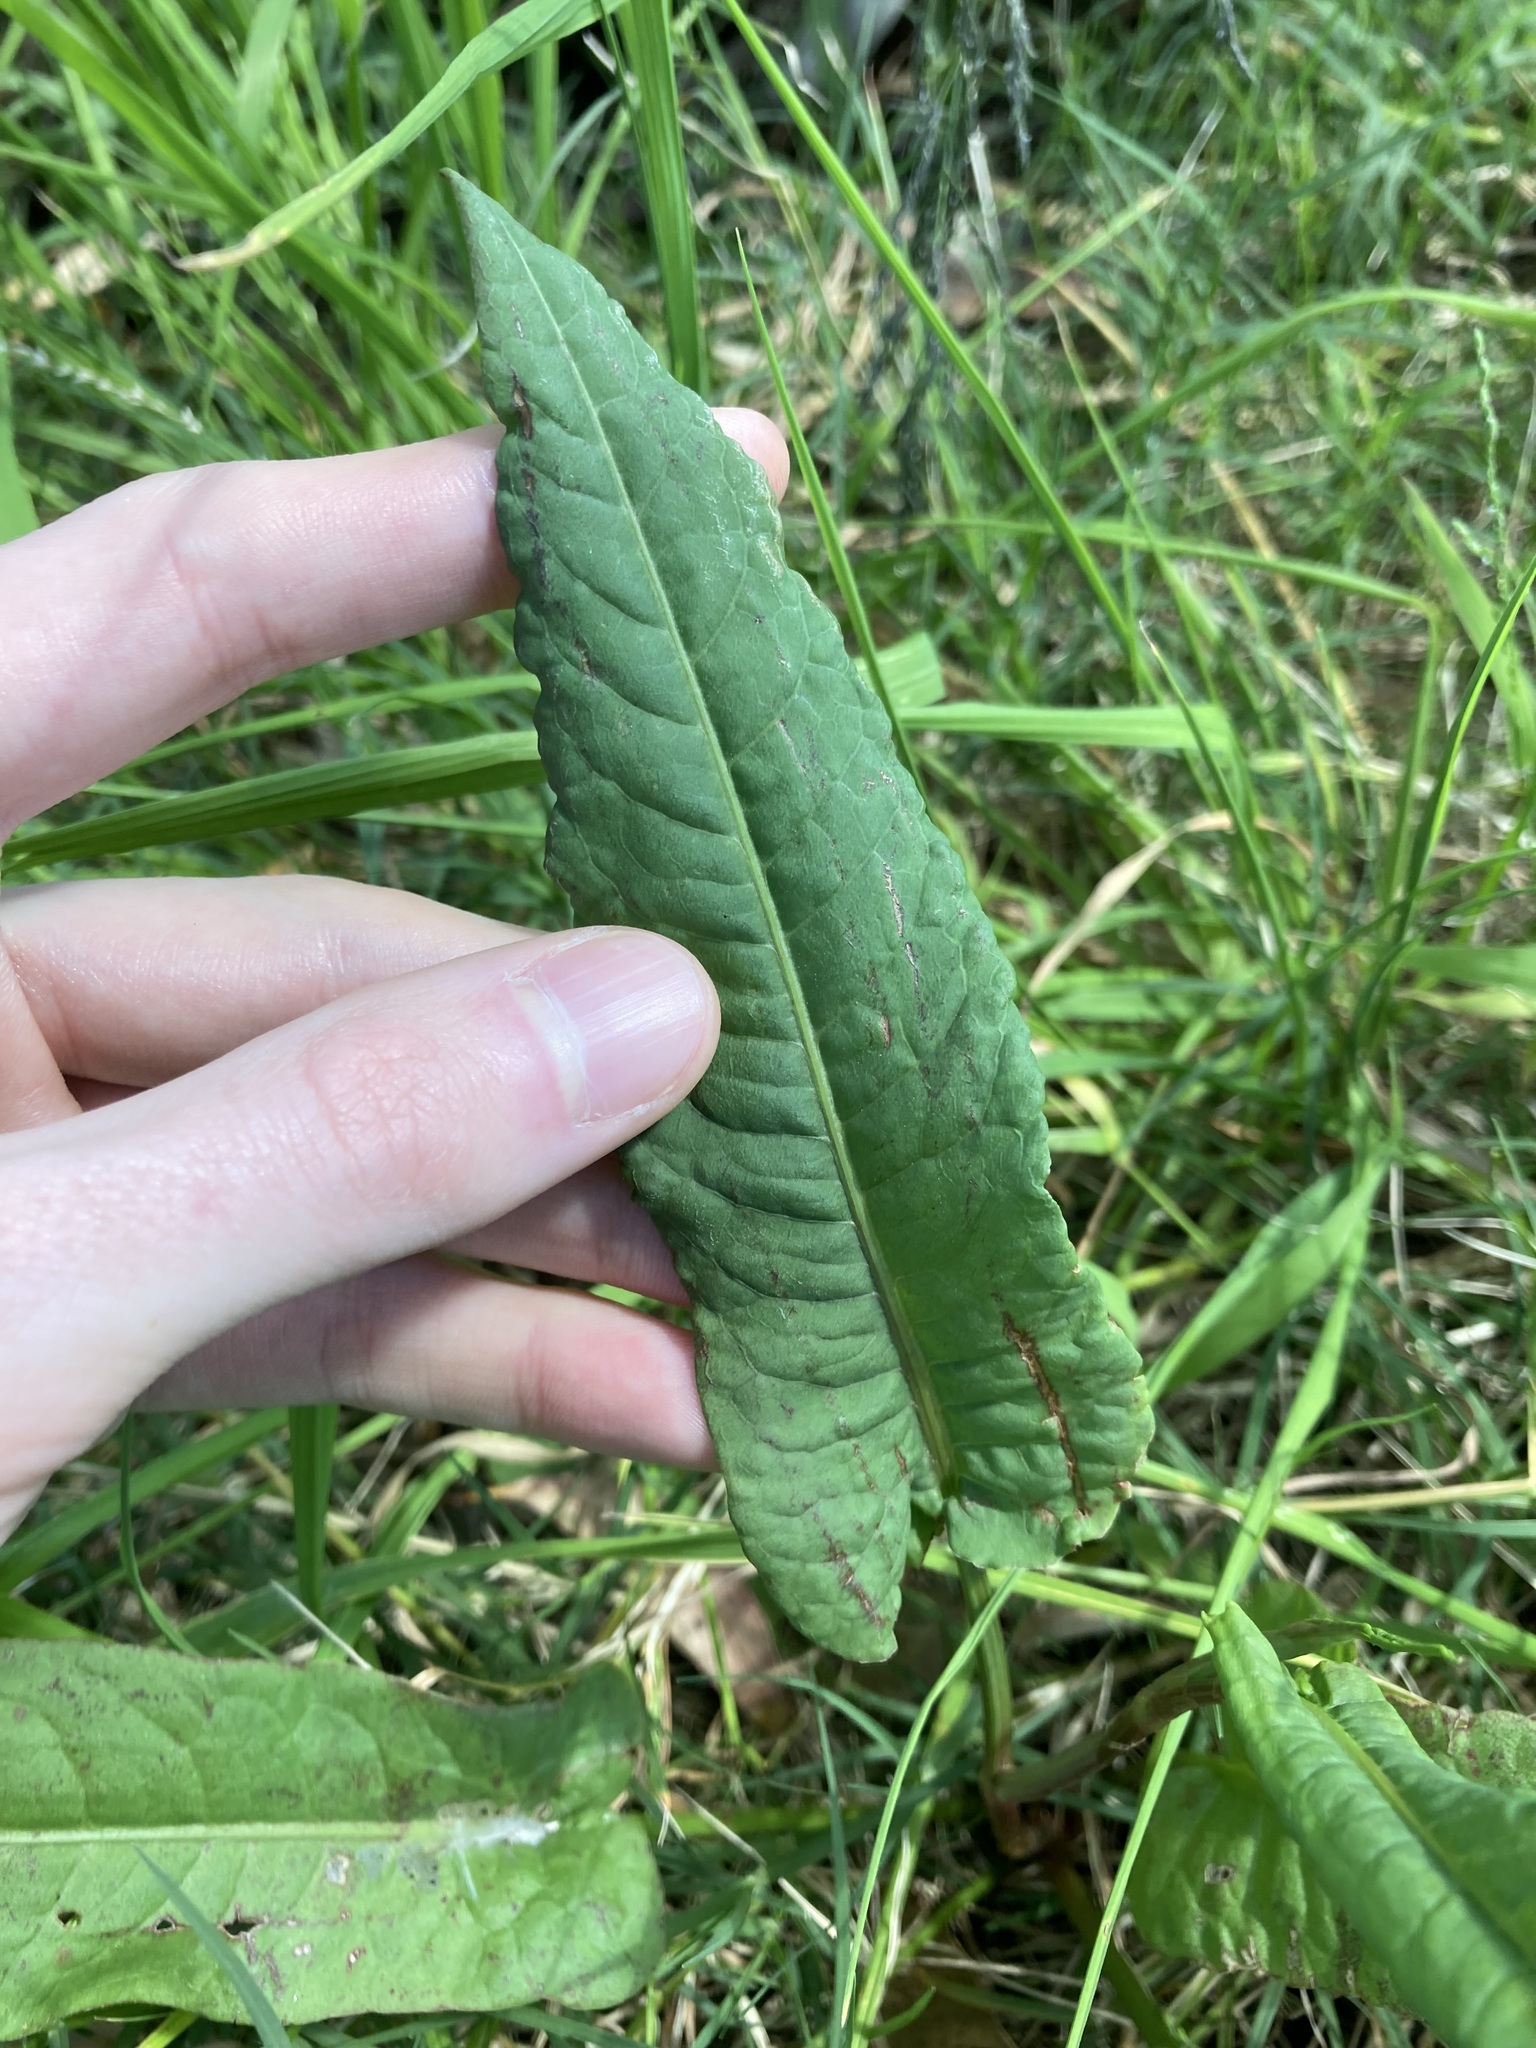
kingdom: Plantae
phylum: Tracheophyta
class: Magnoliopsida
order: Caryophyllales
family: Polygonaceae
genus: Rumex
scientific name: Rumex brownii
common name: Hooked dock
